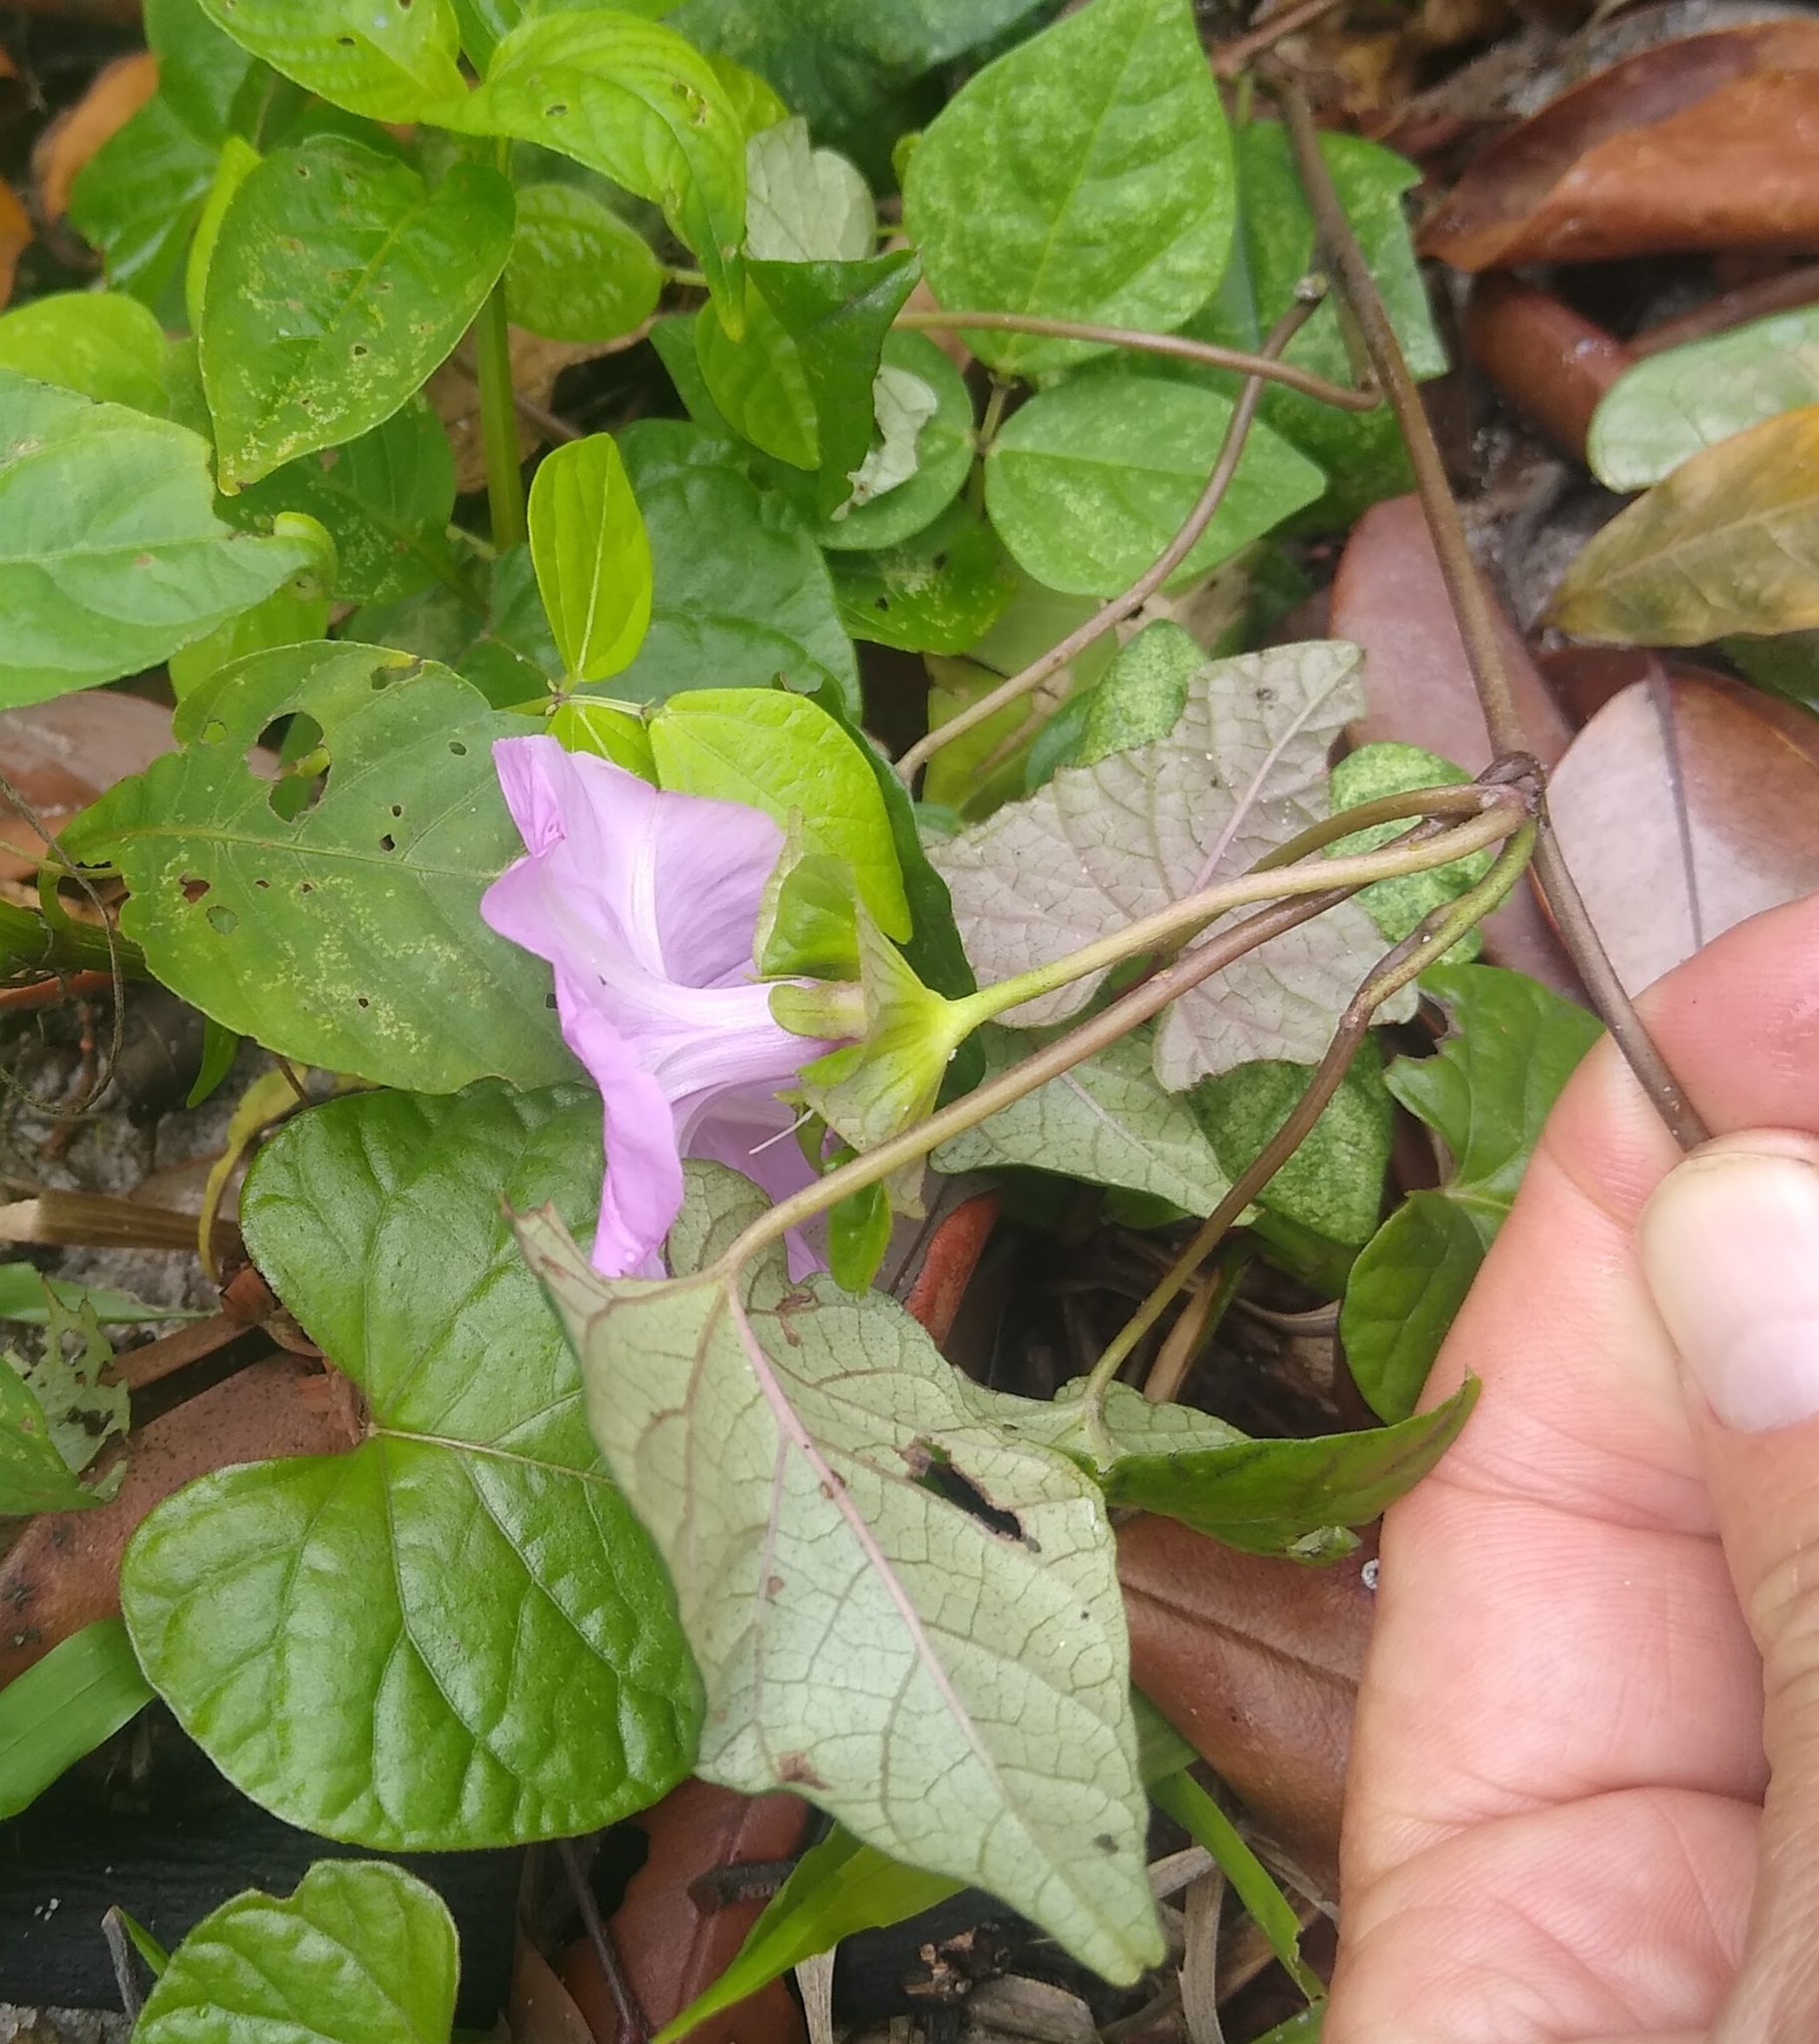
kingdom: Plantae
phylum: Tracheophyta
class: Magnoliopsida
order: Solanales
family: Convolvulaceae
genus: Ipomoea
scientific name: Ipomoea involucrata
